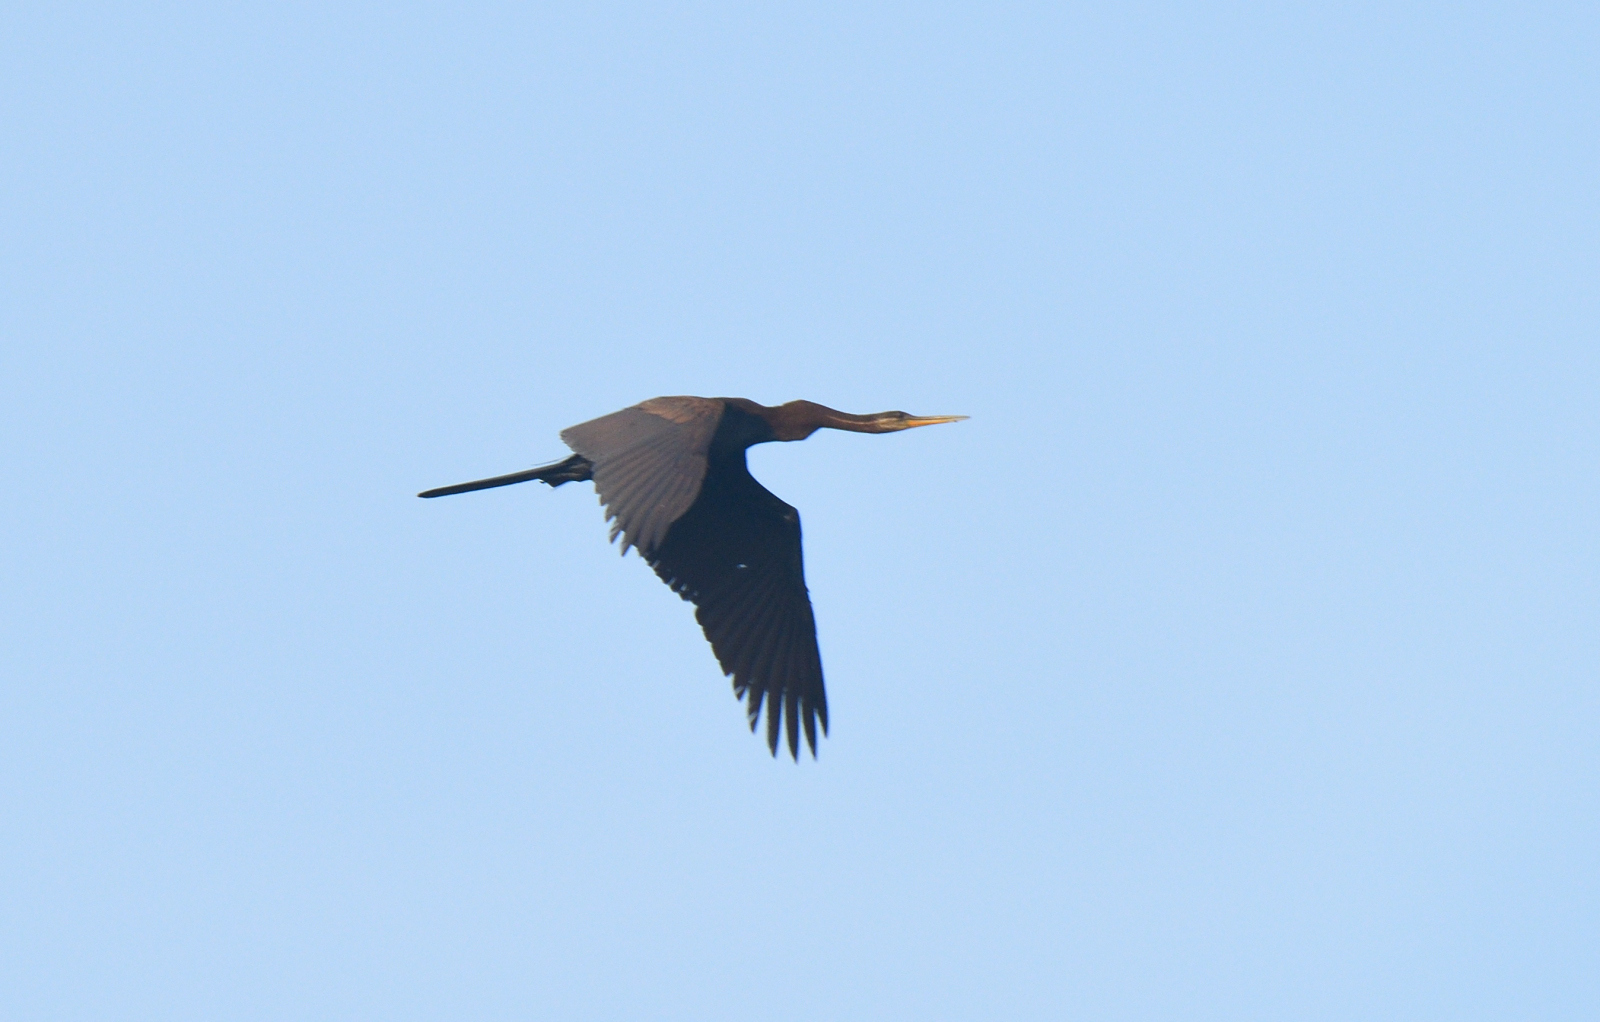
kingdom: Animalia
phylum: Chordata
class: Aves
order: Suliformes
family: Anhingidae
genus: Anhinga
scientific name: Anhinga melanogaster
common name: Oriental darter
